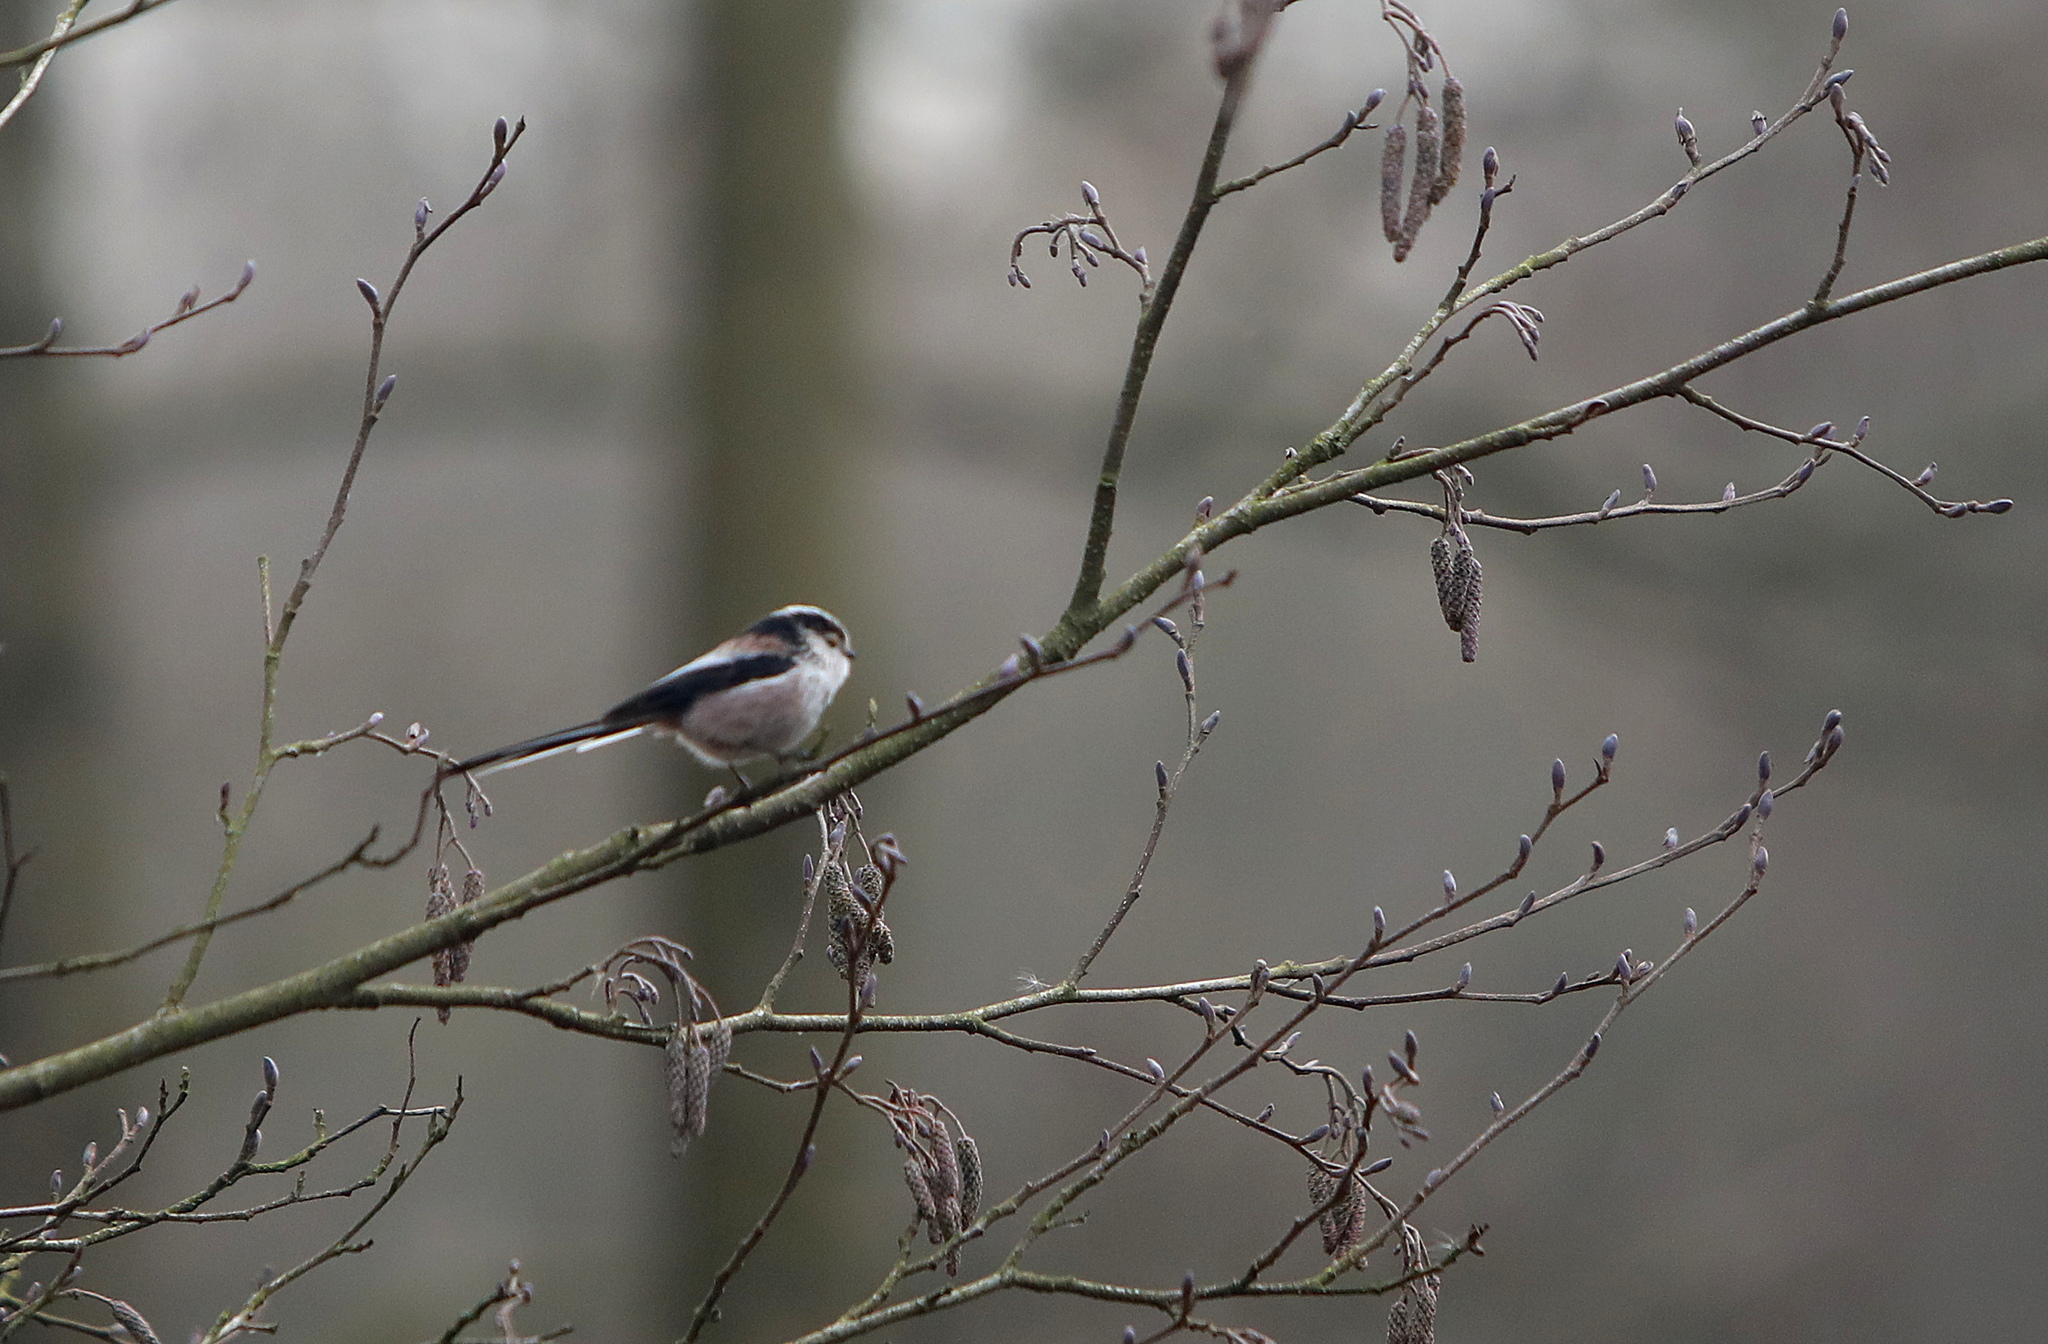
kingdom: Animalia
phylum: Chordata
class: Aves
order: Passeriformes
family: Aegithalidae
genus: Aegithalos
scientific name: Aegithalos caudatus
